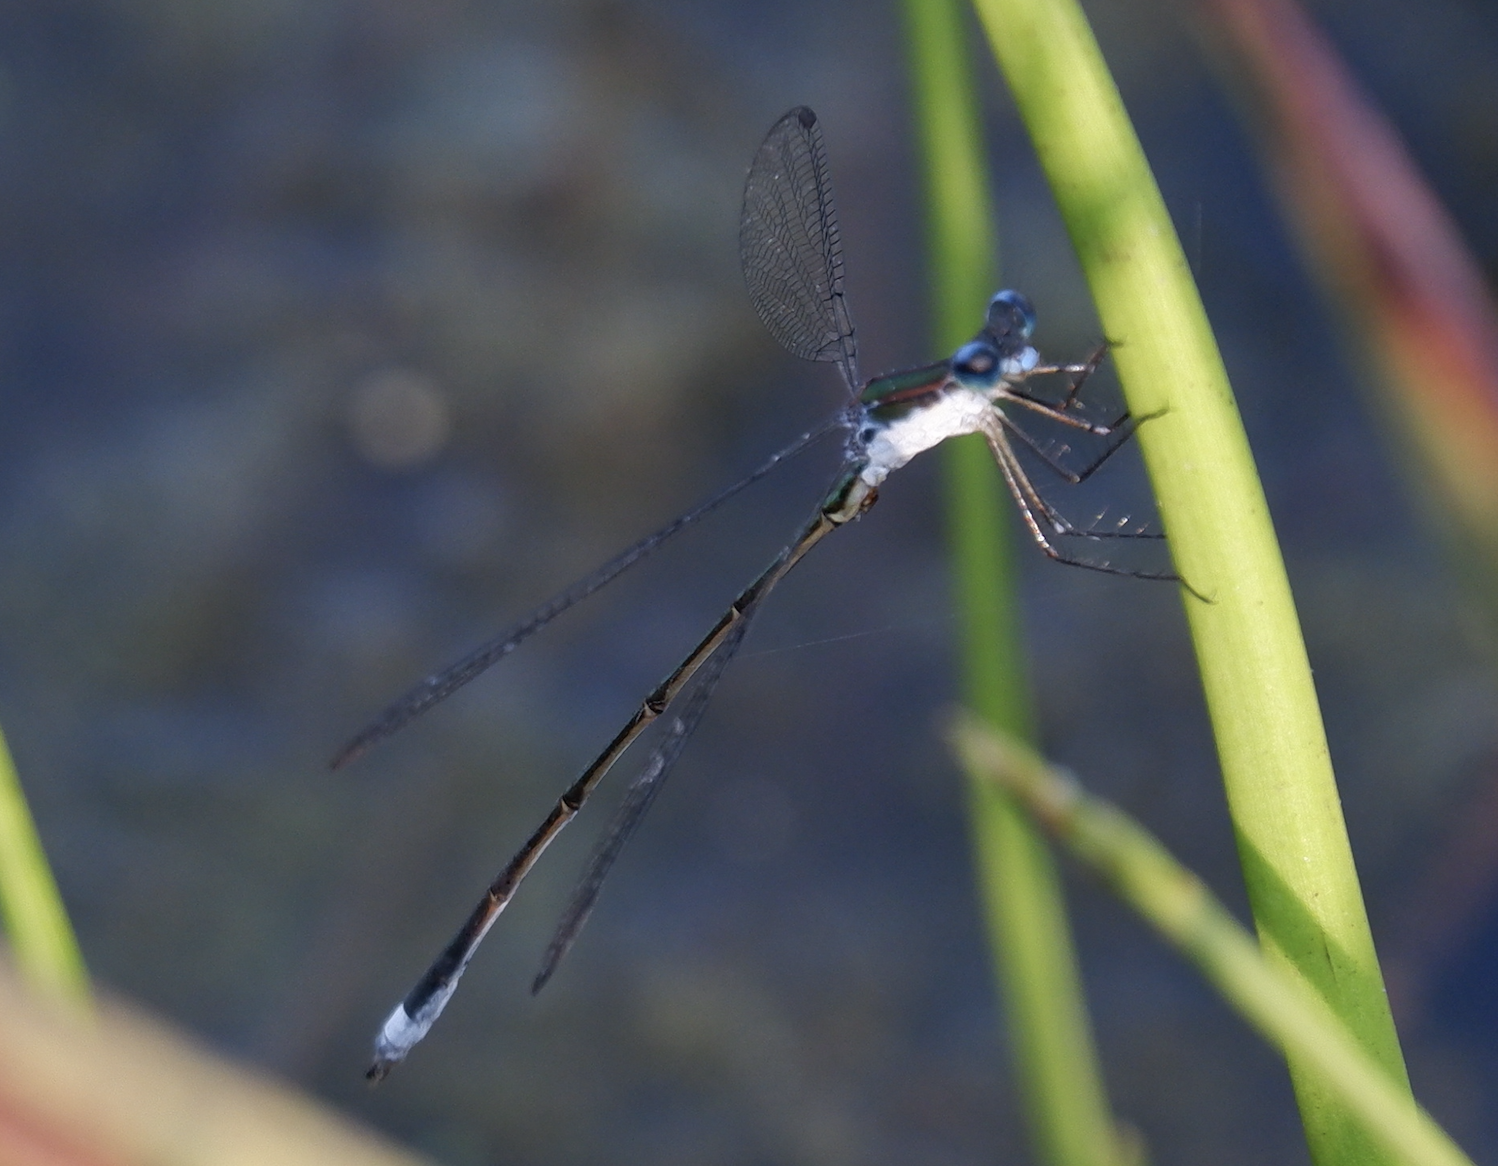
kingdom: Animalia
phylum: Arthropoda
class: Insecta
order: Odonata
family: Lestidae
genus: Lestes
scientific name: Lestes vigilax
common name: Swamp spreadwing
